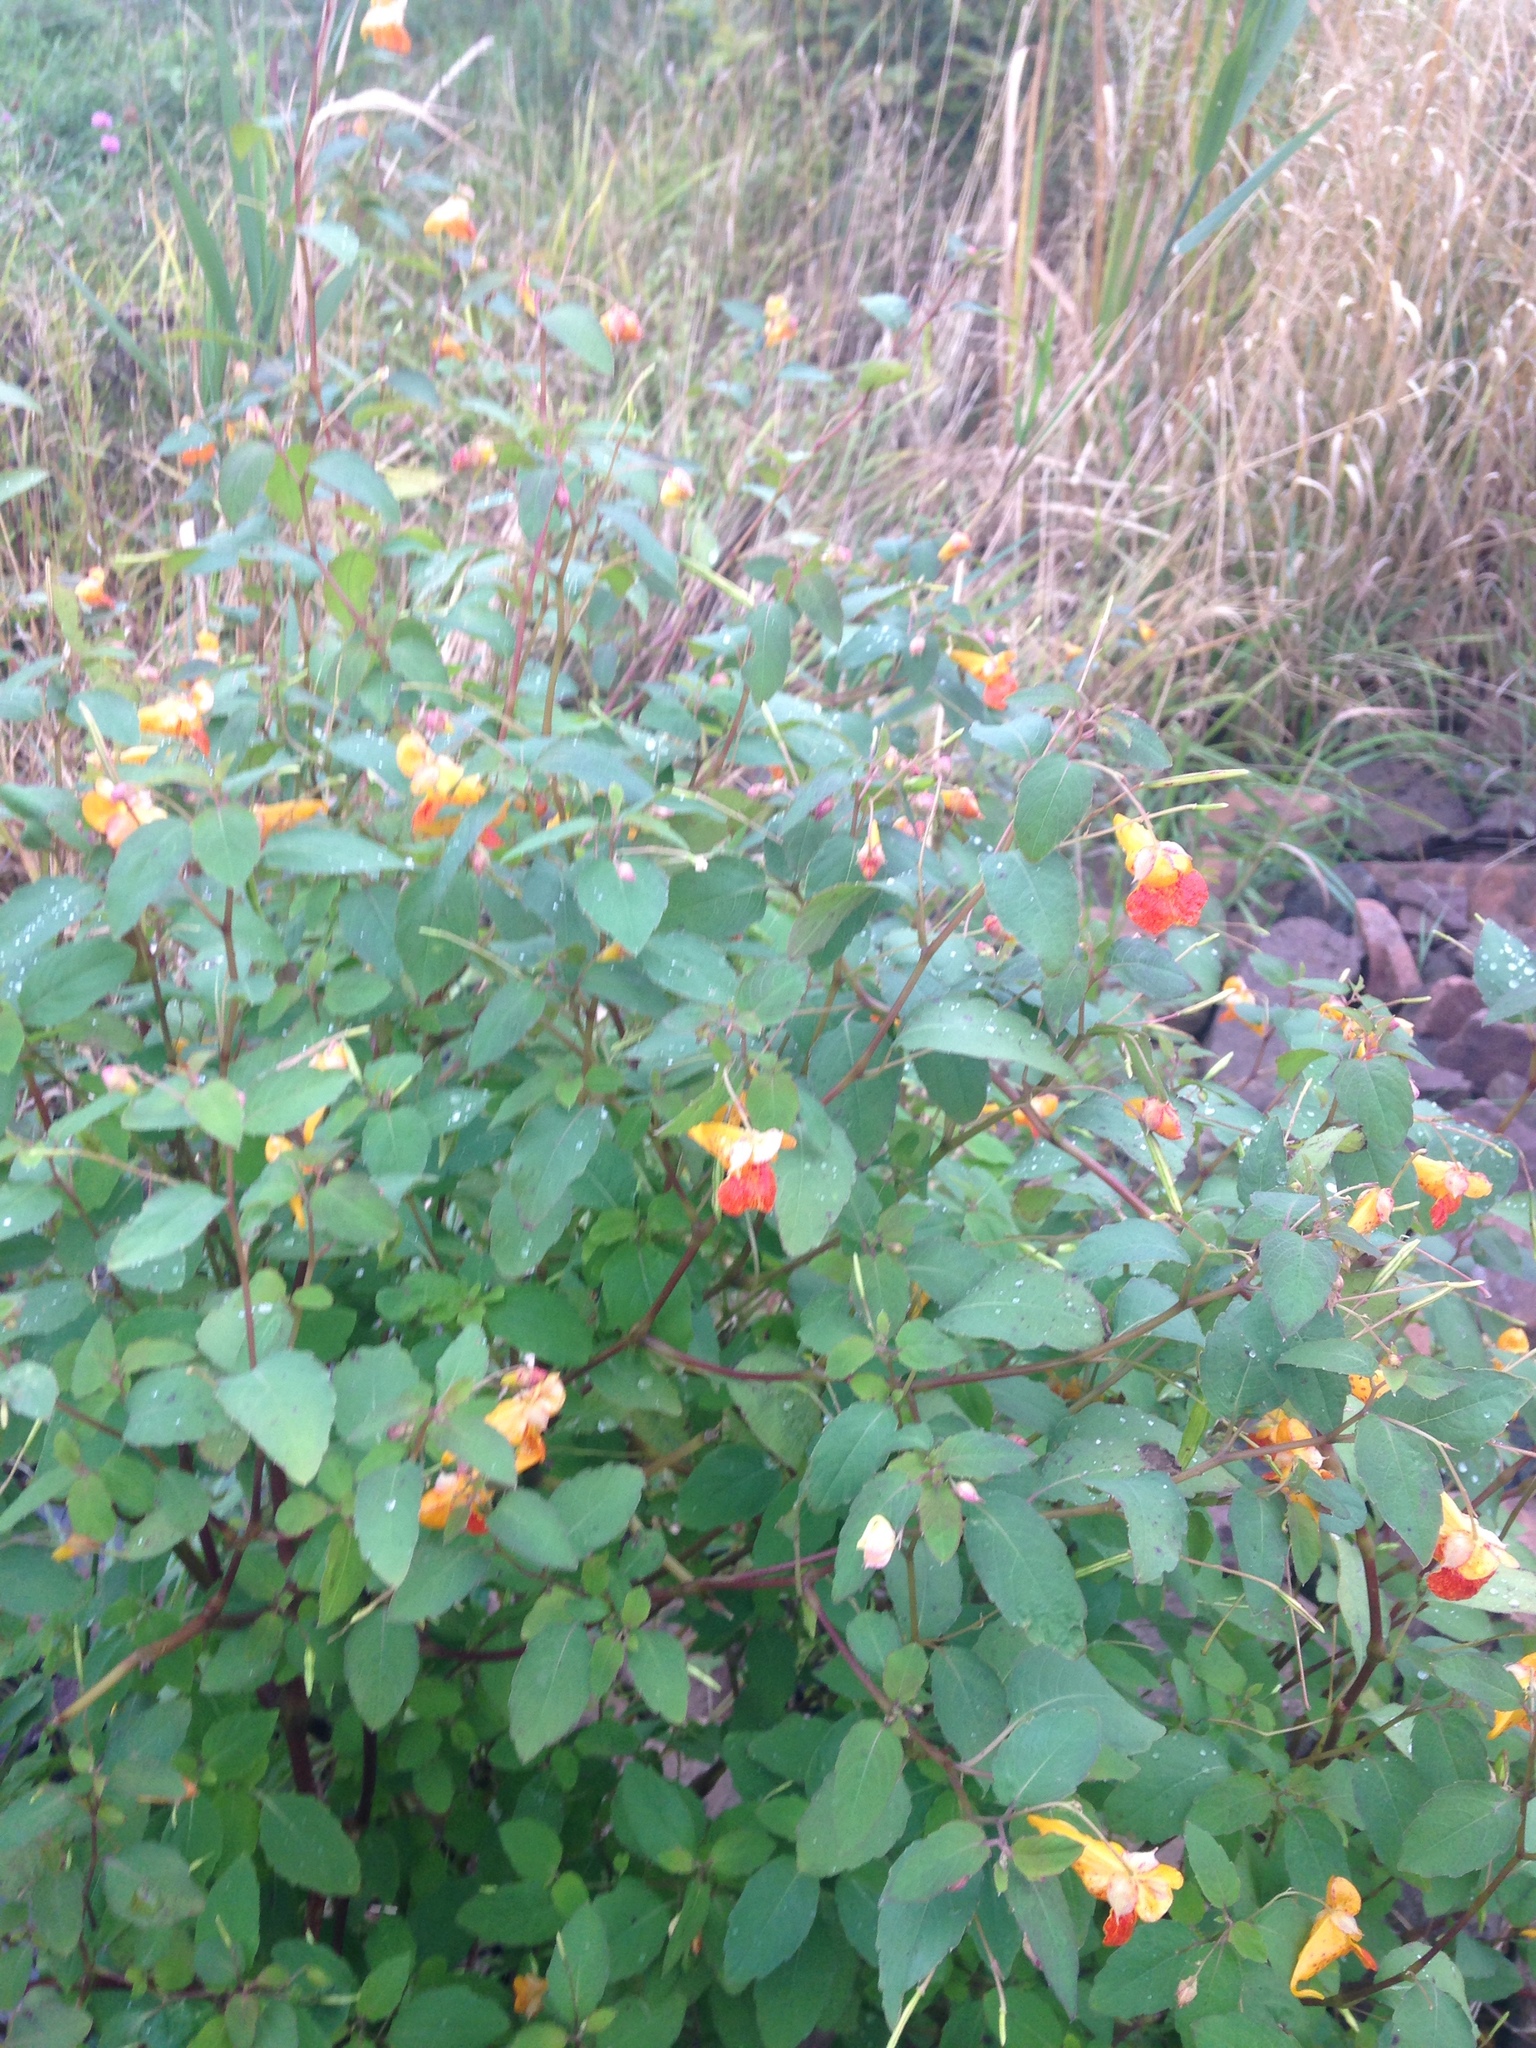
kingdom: Plantae
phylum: Tracheophyta
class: Magnoliopsida
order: Ericales
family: Balsaminaceae
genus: Impatiens
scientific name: Impatiens capensis
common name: Orange balsam
